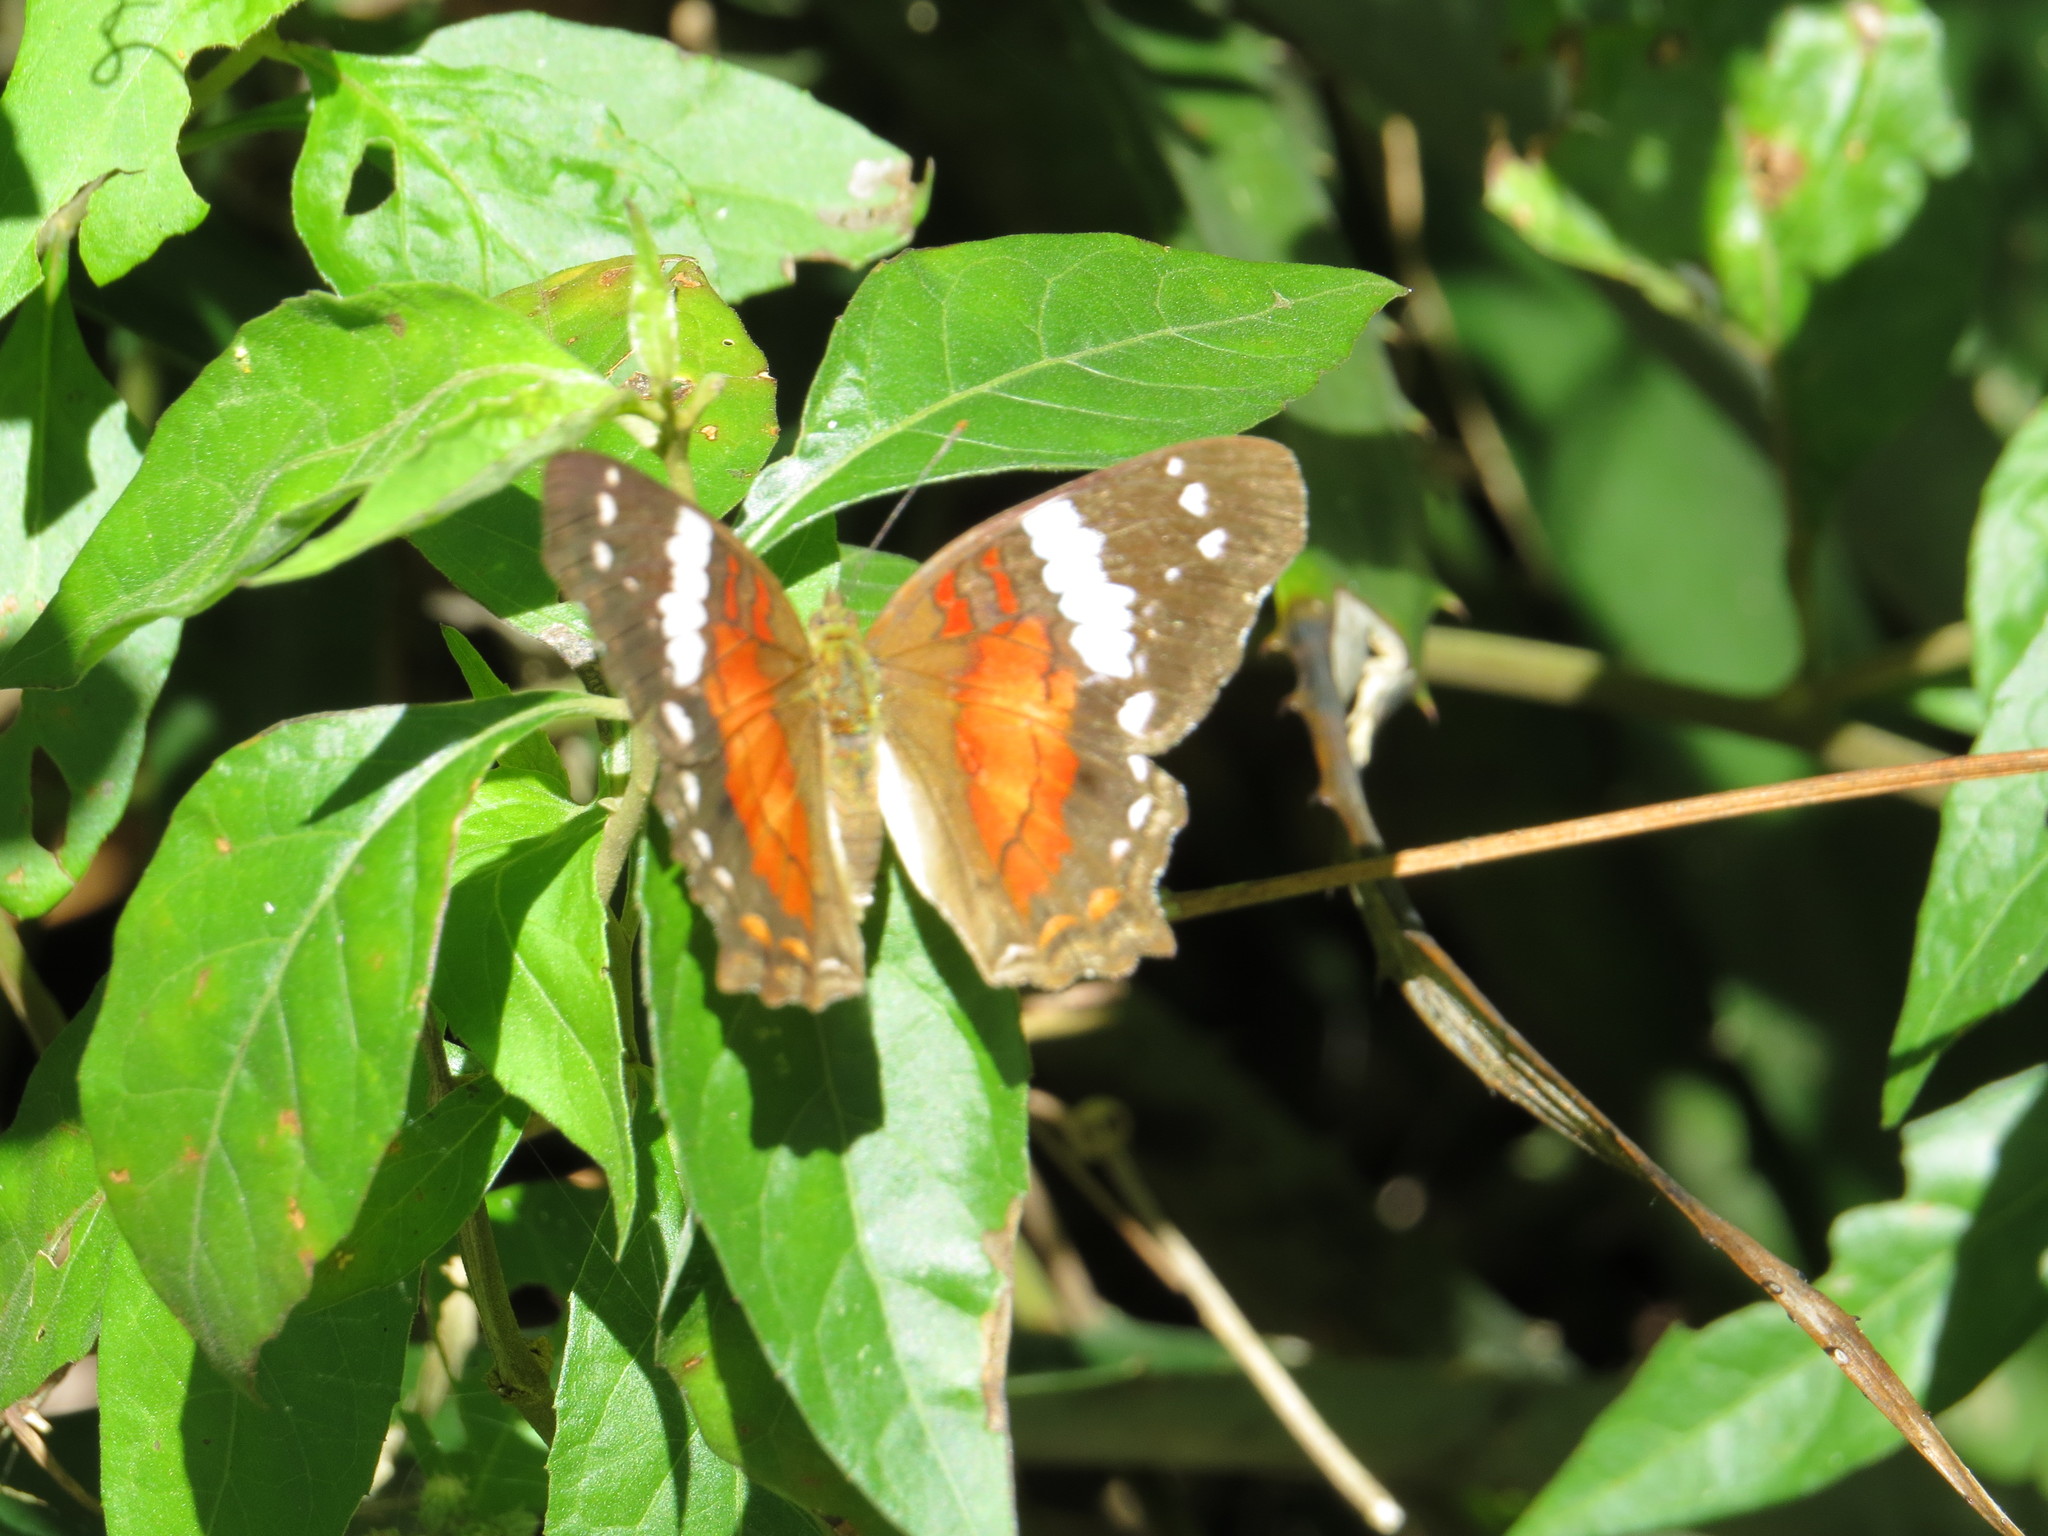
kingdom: Animalia
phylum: Arthropoda
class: Insecta
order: Lepidoptera
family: Nymphalidae
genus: Anartia
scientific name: Anartia amathea
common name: Red peacock
